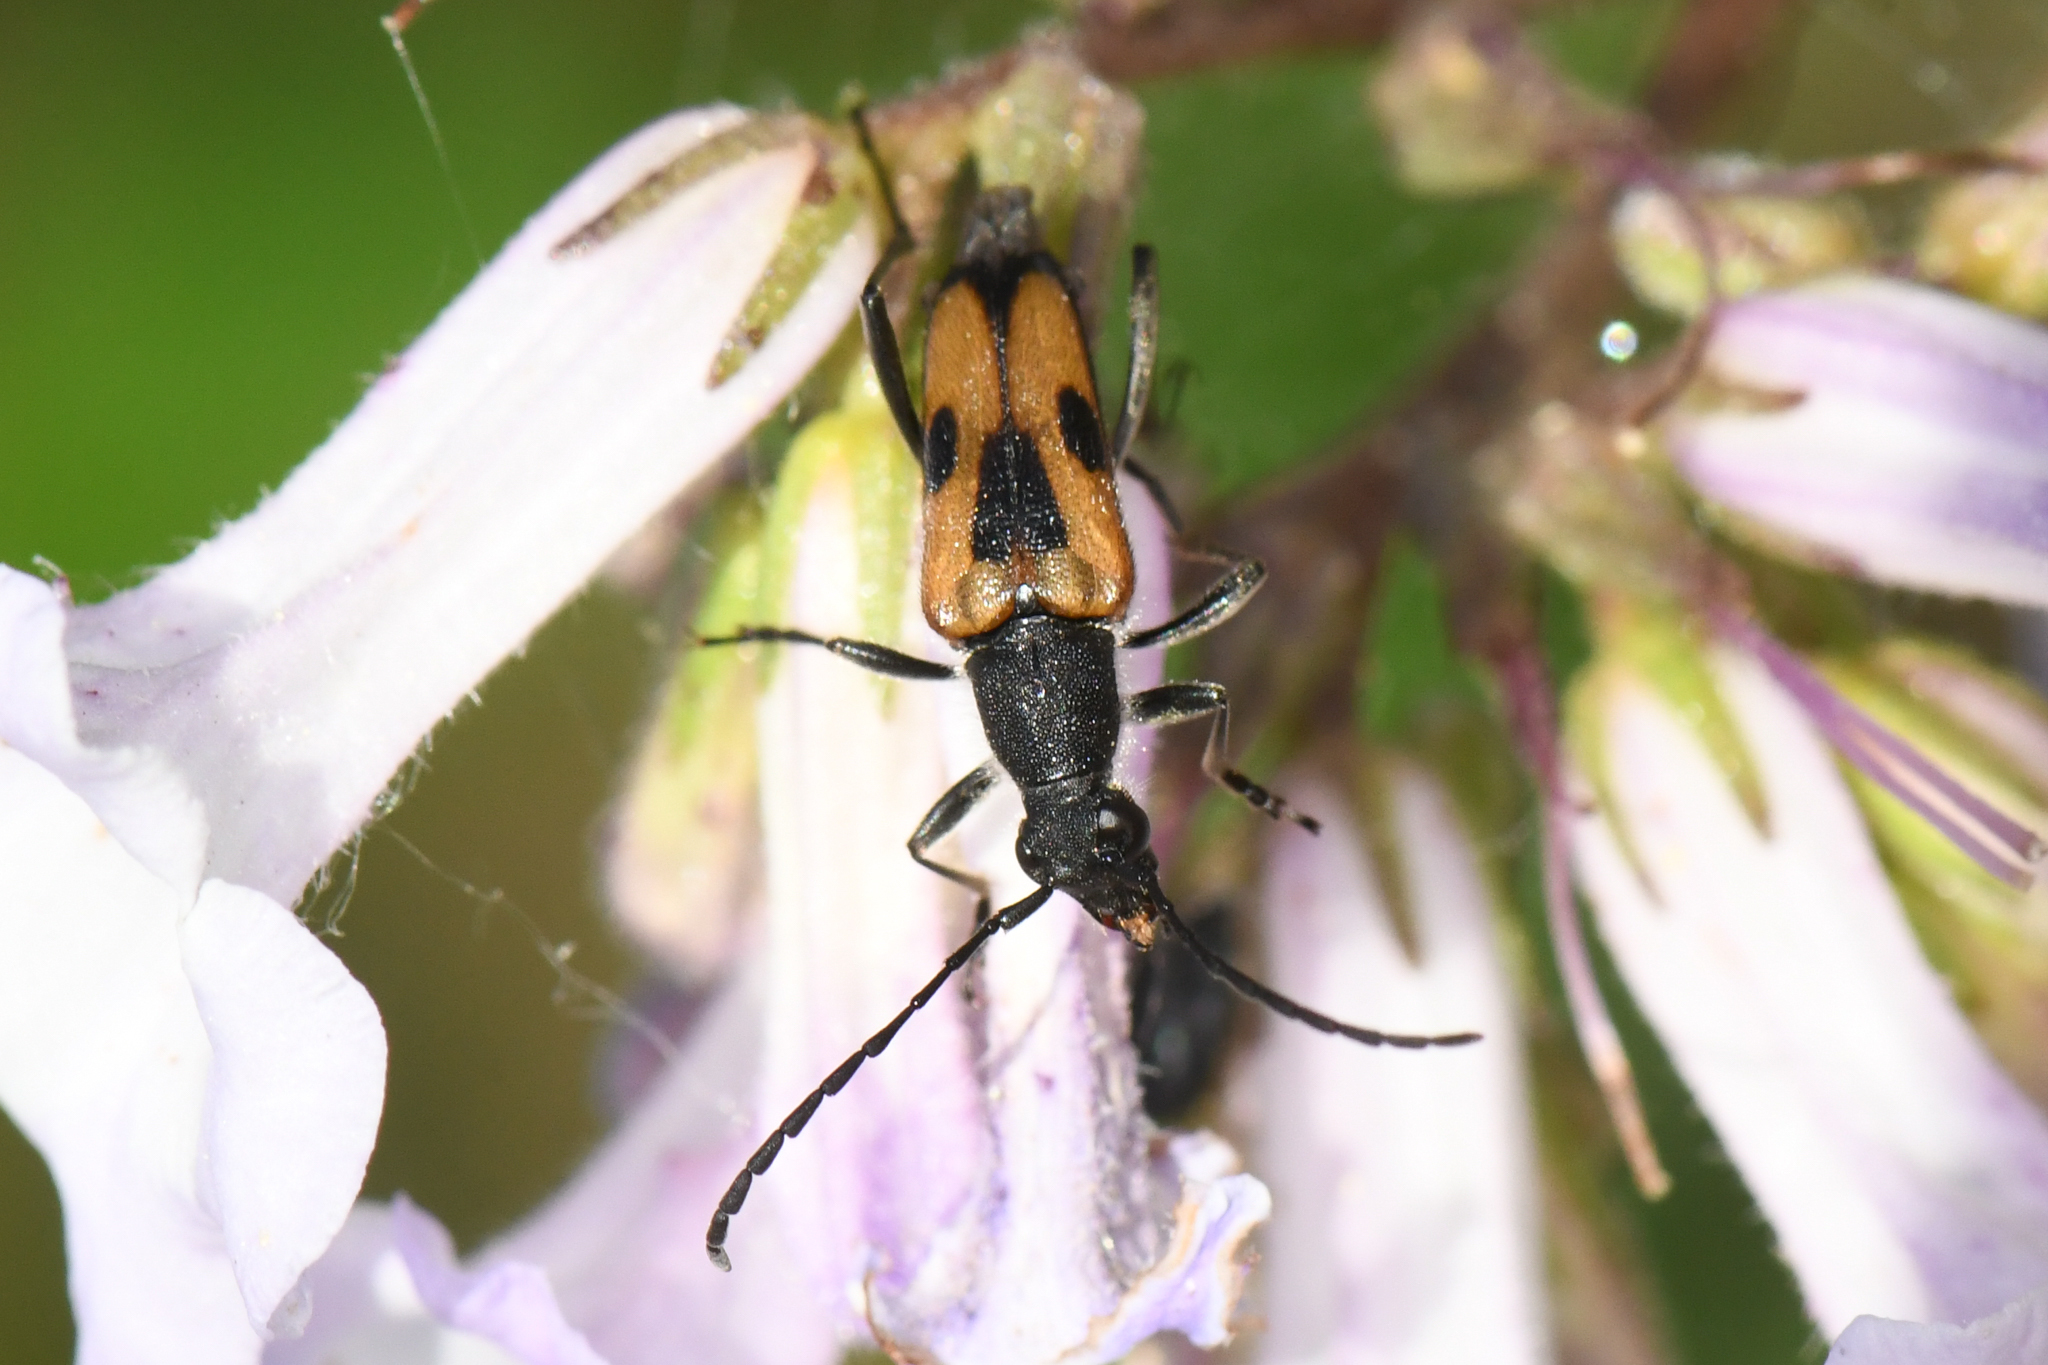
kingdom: Animalia
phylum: Arthropoda
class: Insecta
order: Coleoptera
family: Cerambycidae
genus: Anastrangalia
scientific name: Anastrangalia laetifica
